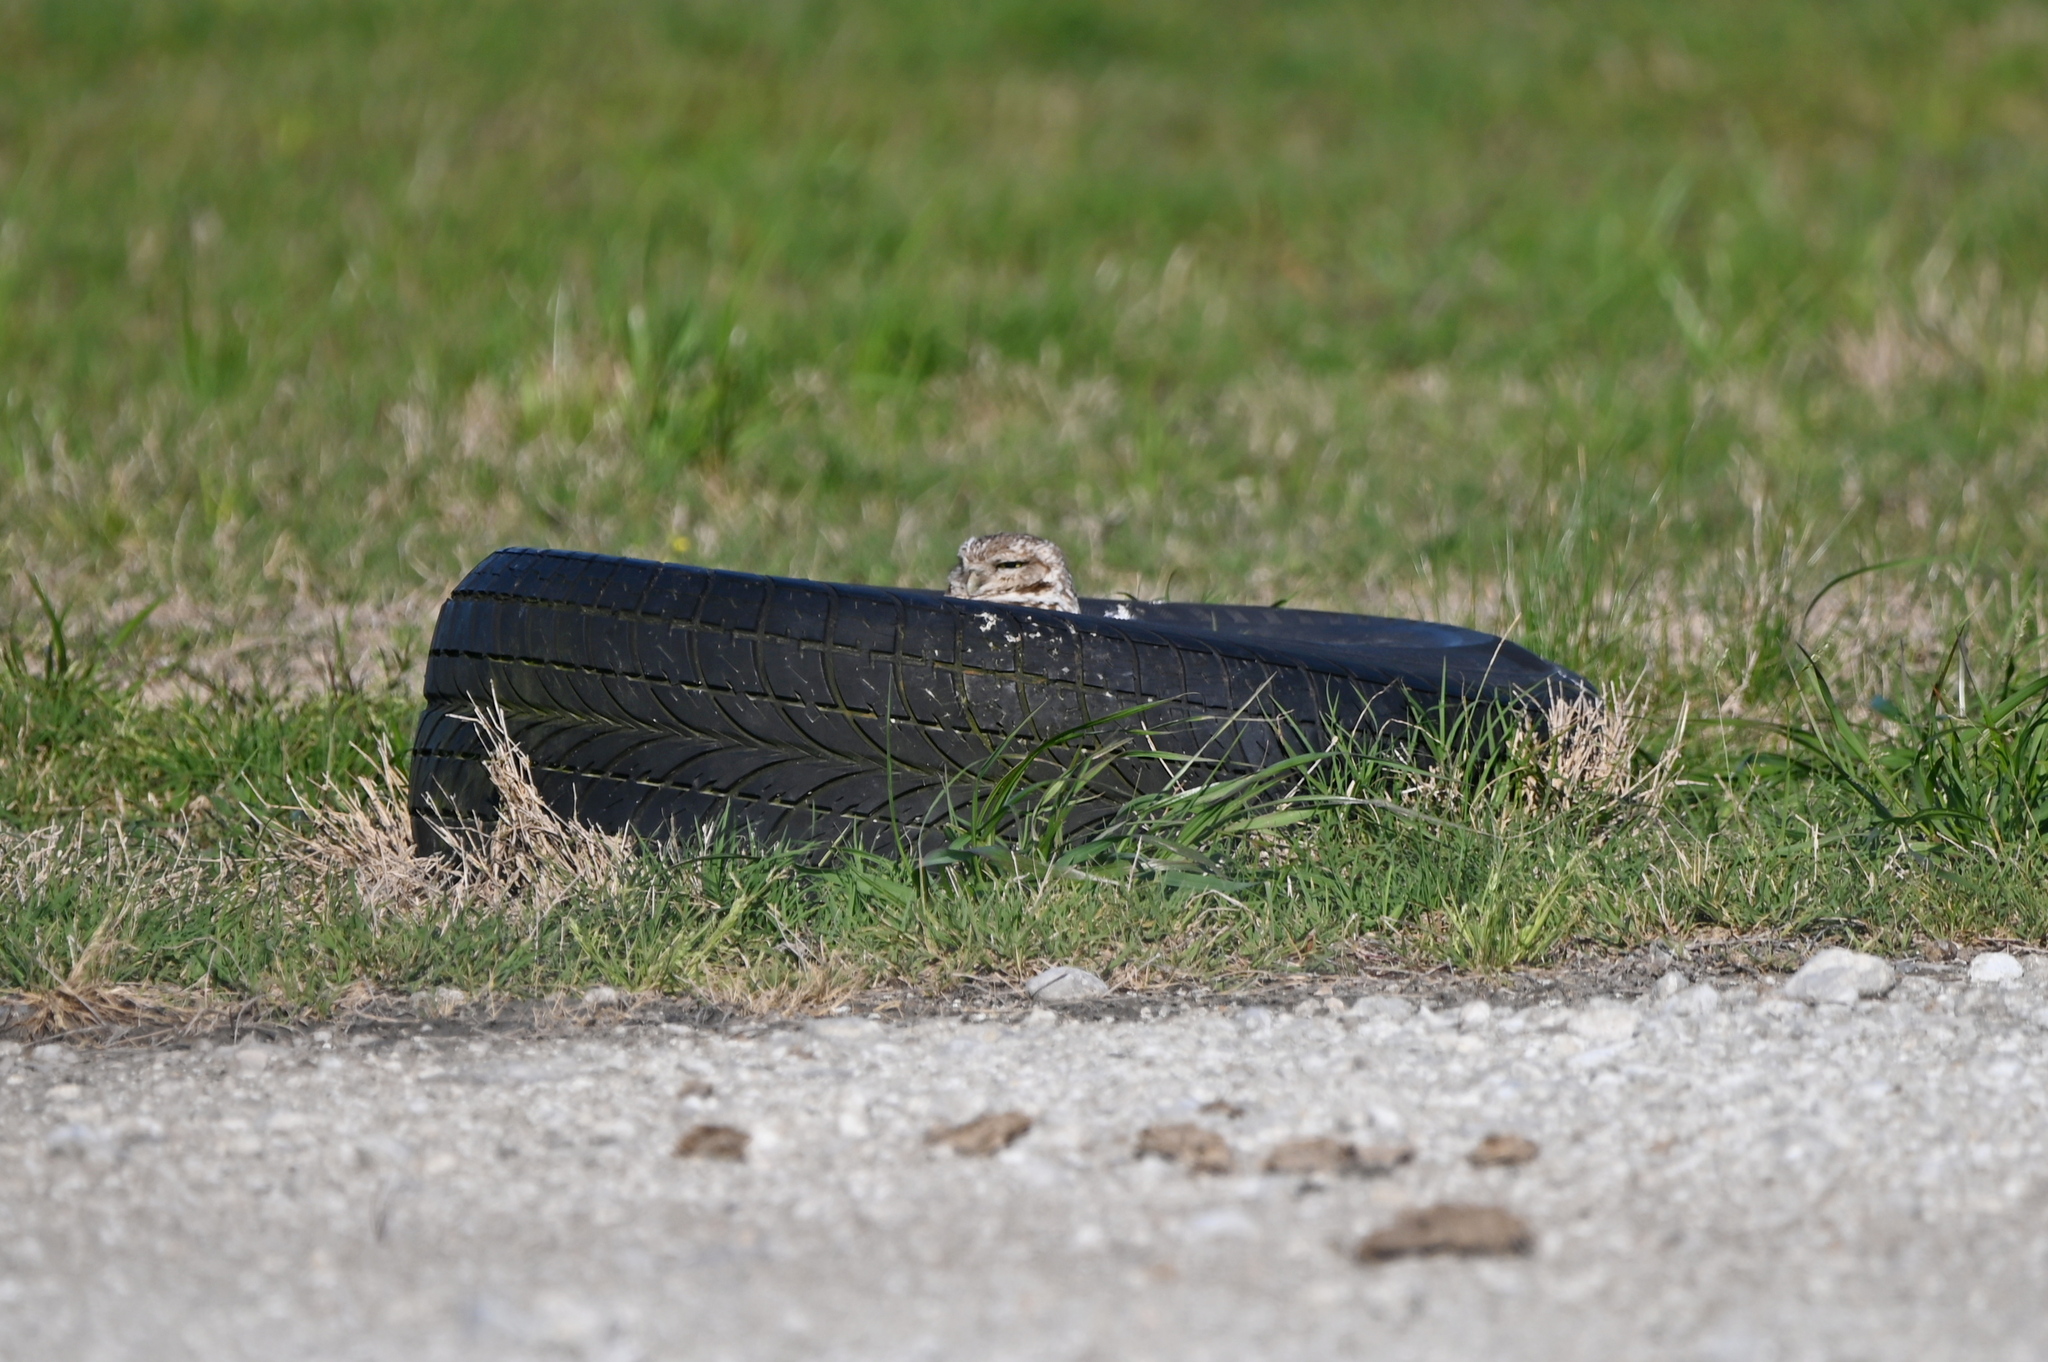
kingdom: Animalia
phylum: Chordata
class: Aves
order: Strigiformes
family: Strigidae
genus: Athene
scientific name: Athene cunicularia
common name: Burrowing owl
